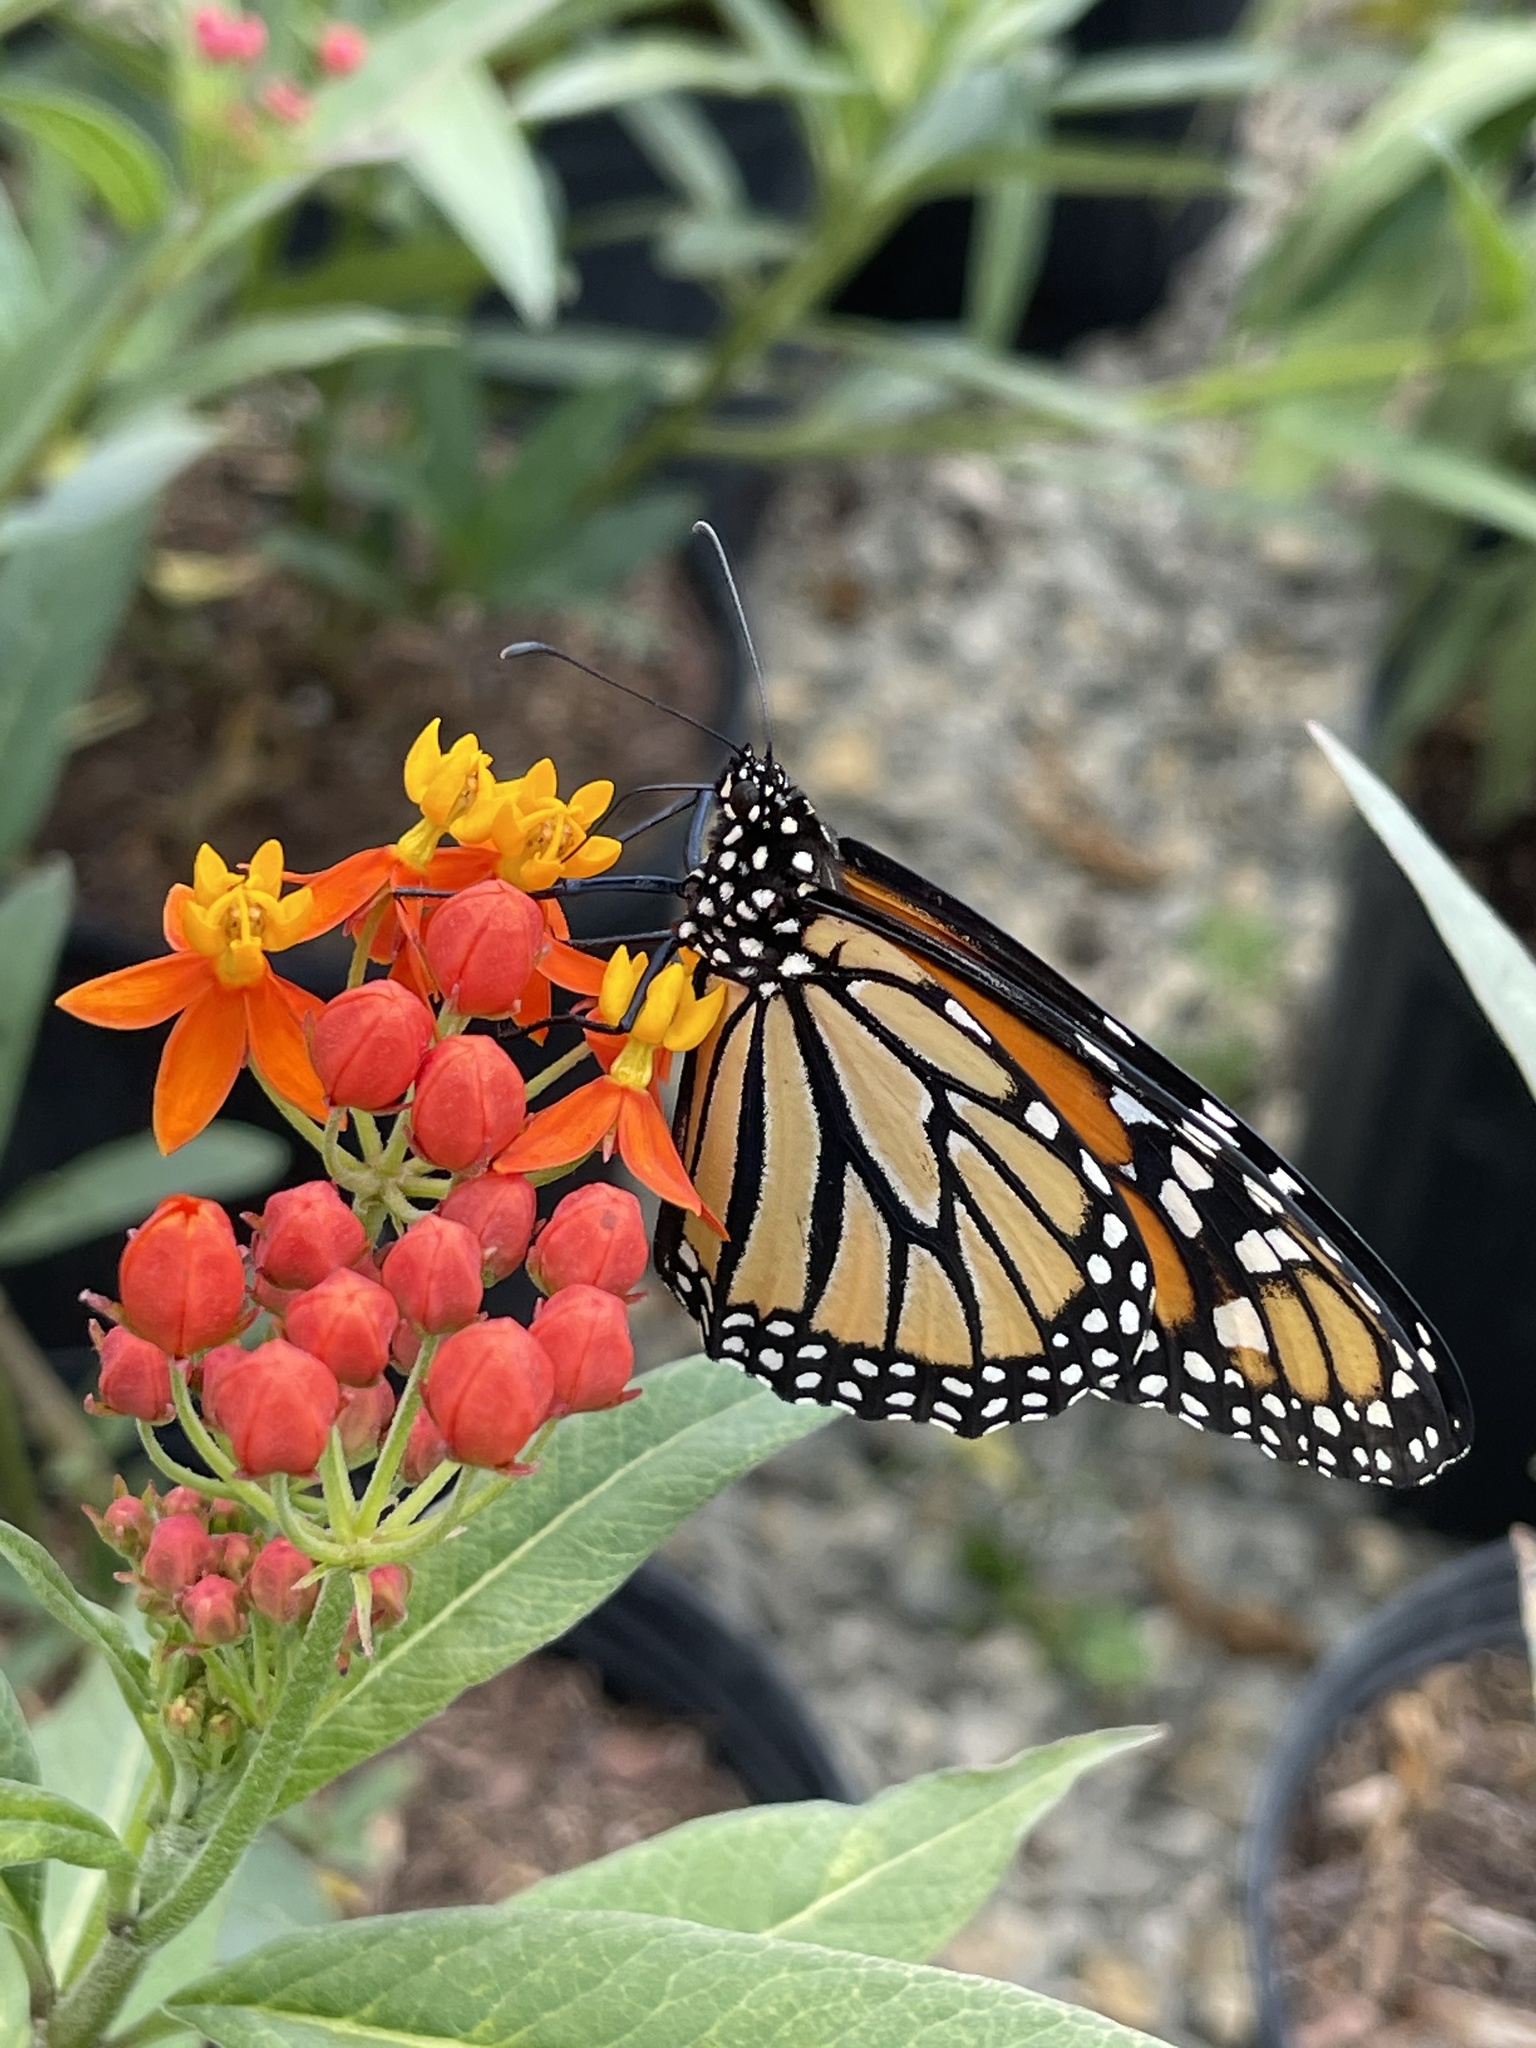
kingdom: Animalia
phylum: Arthropoda
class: Insecta
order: Lepidoptera
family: Nymphalidae
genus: Danaus
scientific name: Danaus plexippus
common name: Monarch
